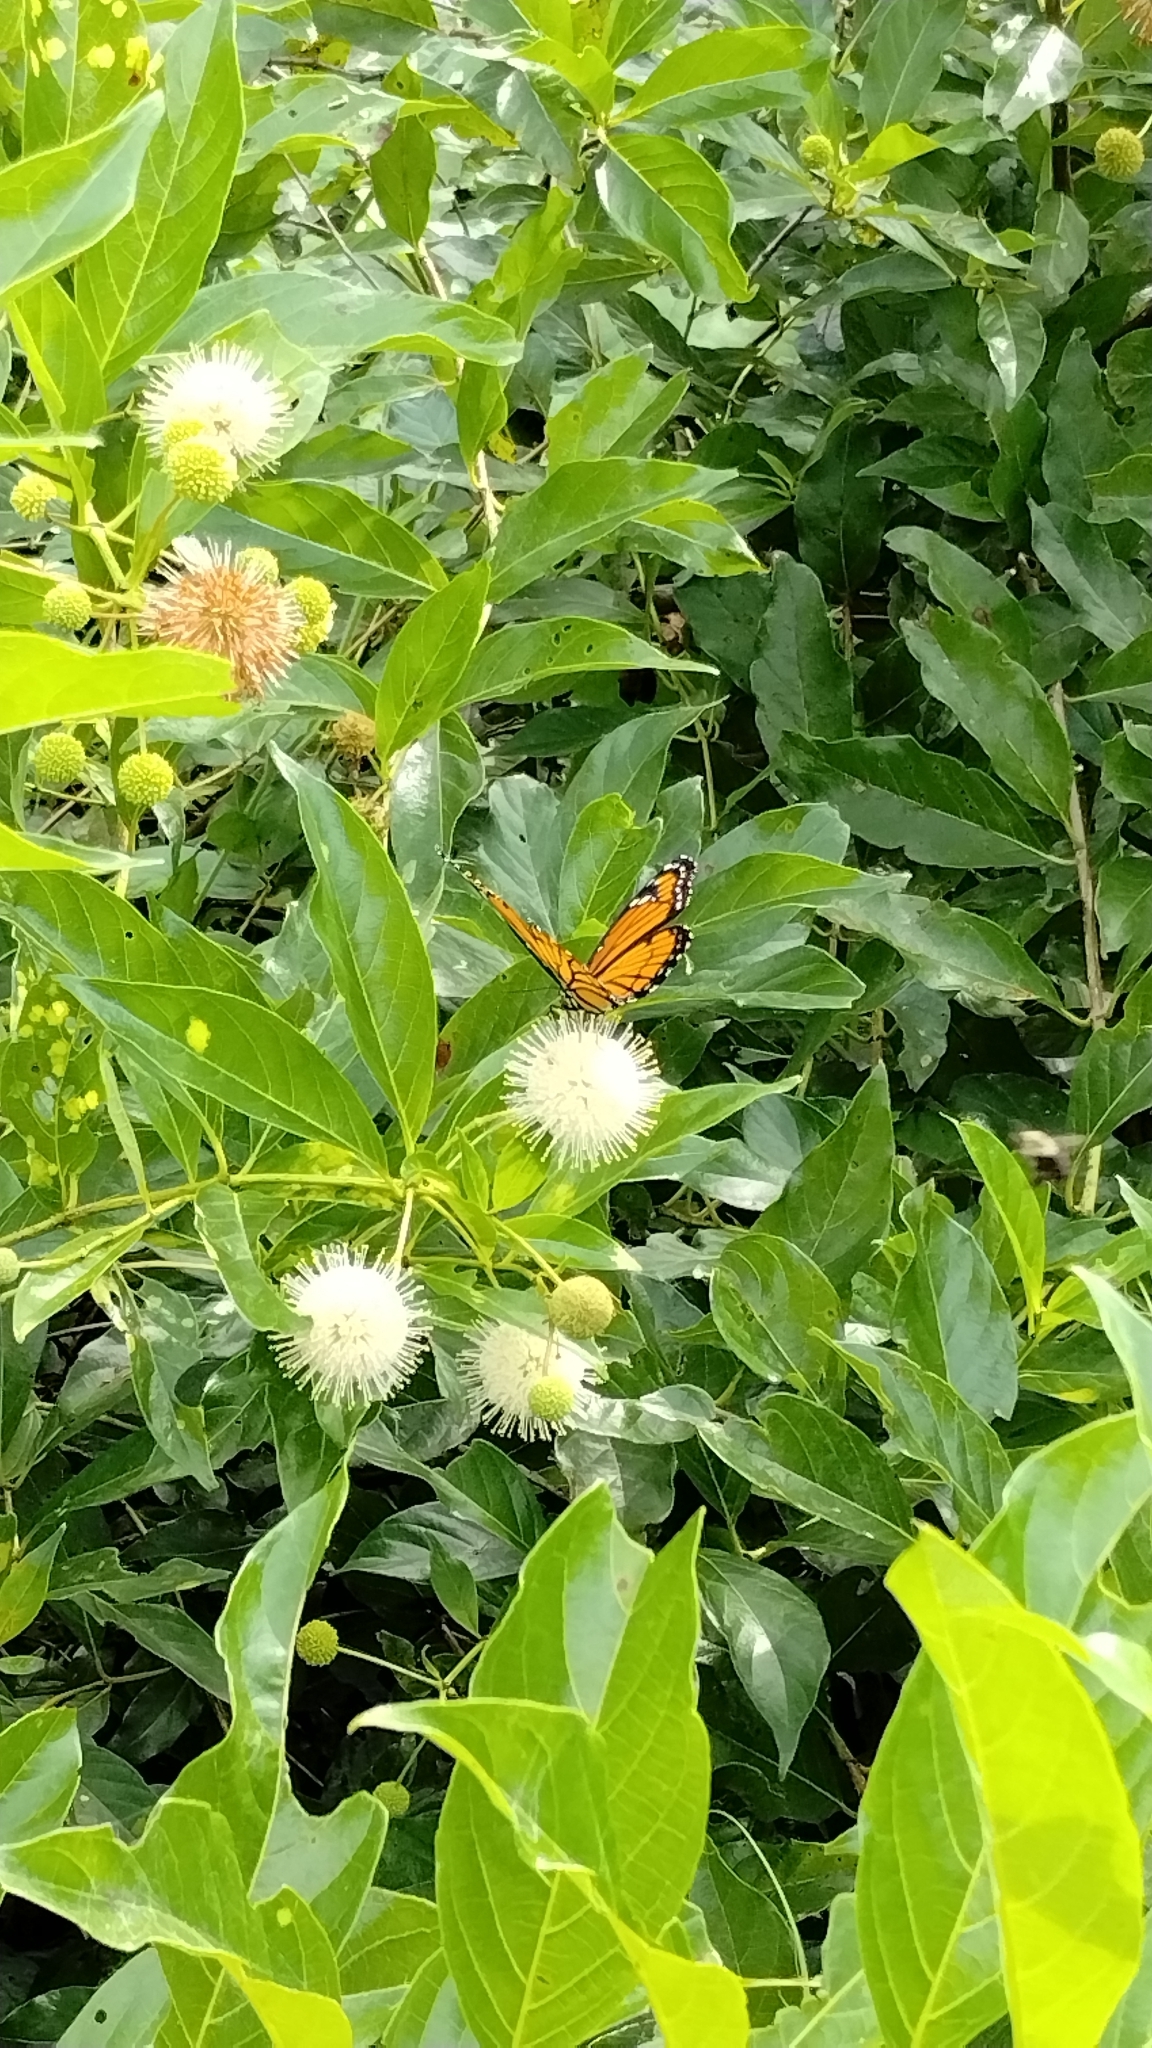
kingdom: Animalia
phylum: Arthropoda
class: Insecta
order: Lepidoptera
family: Nymphalidae
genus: Limenitis
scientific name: Limenitis archippus
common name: Viceroy
